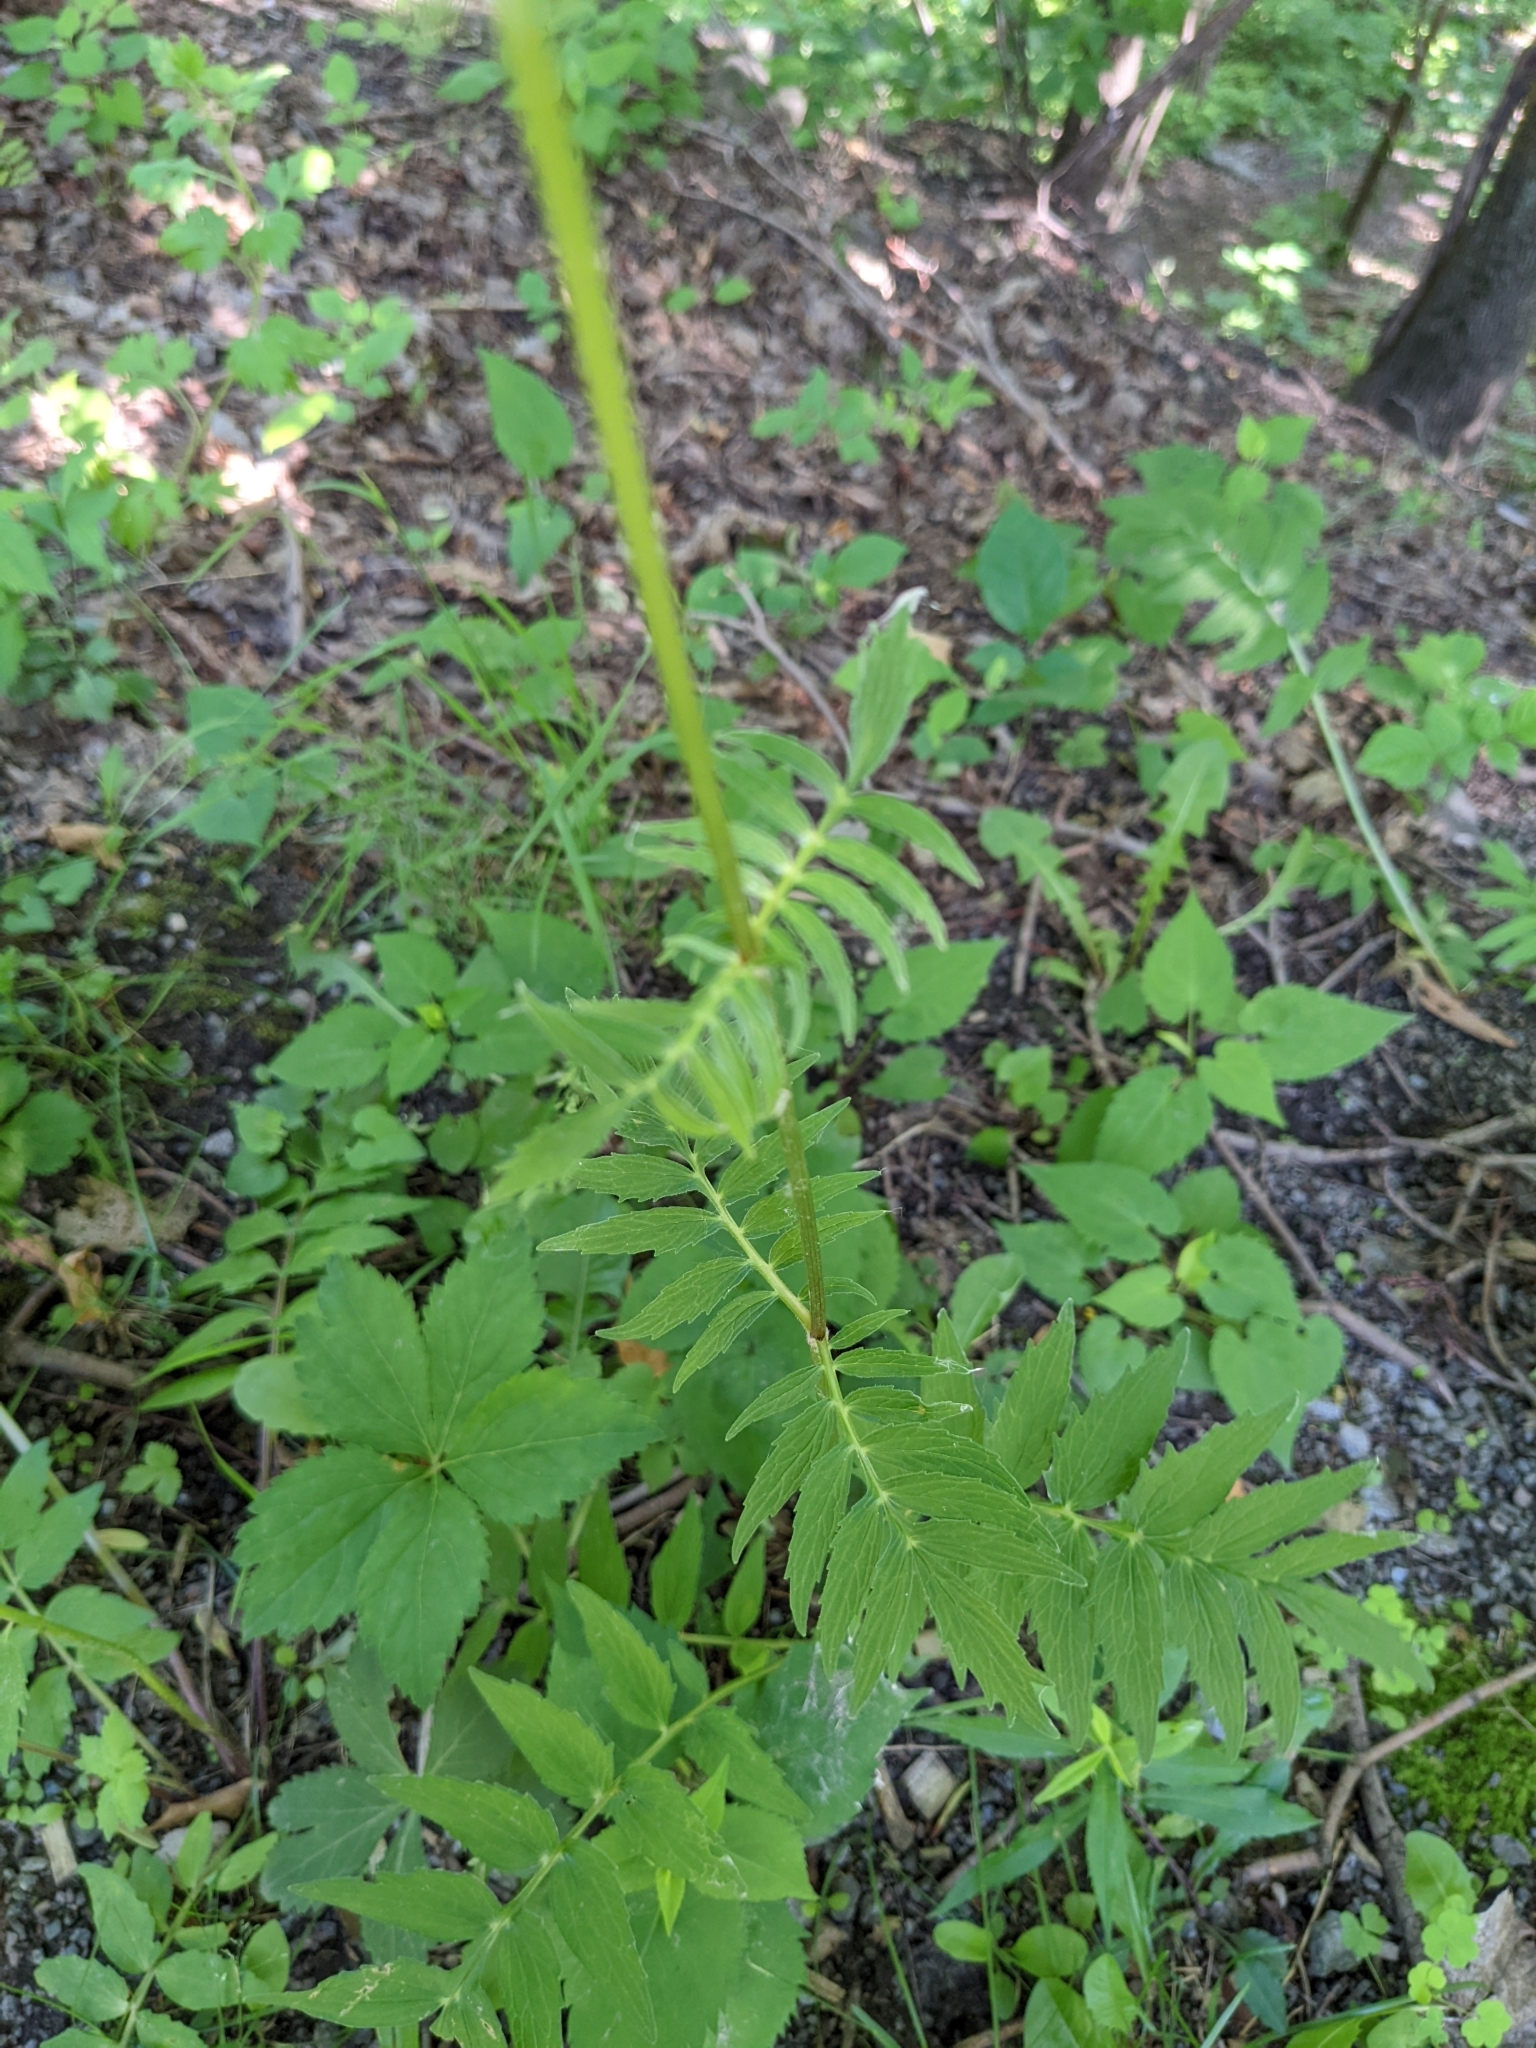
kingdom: Plantae
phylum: Tracheophyta
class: Magnoliopsida
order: Dipsacales
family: Caprifoliaceae
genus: Valeriana
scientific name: Valeriana officinalis
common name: Common valerian
